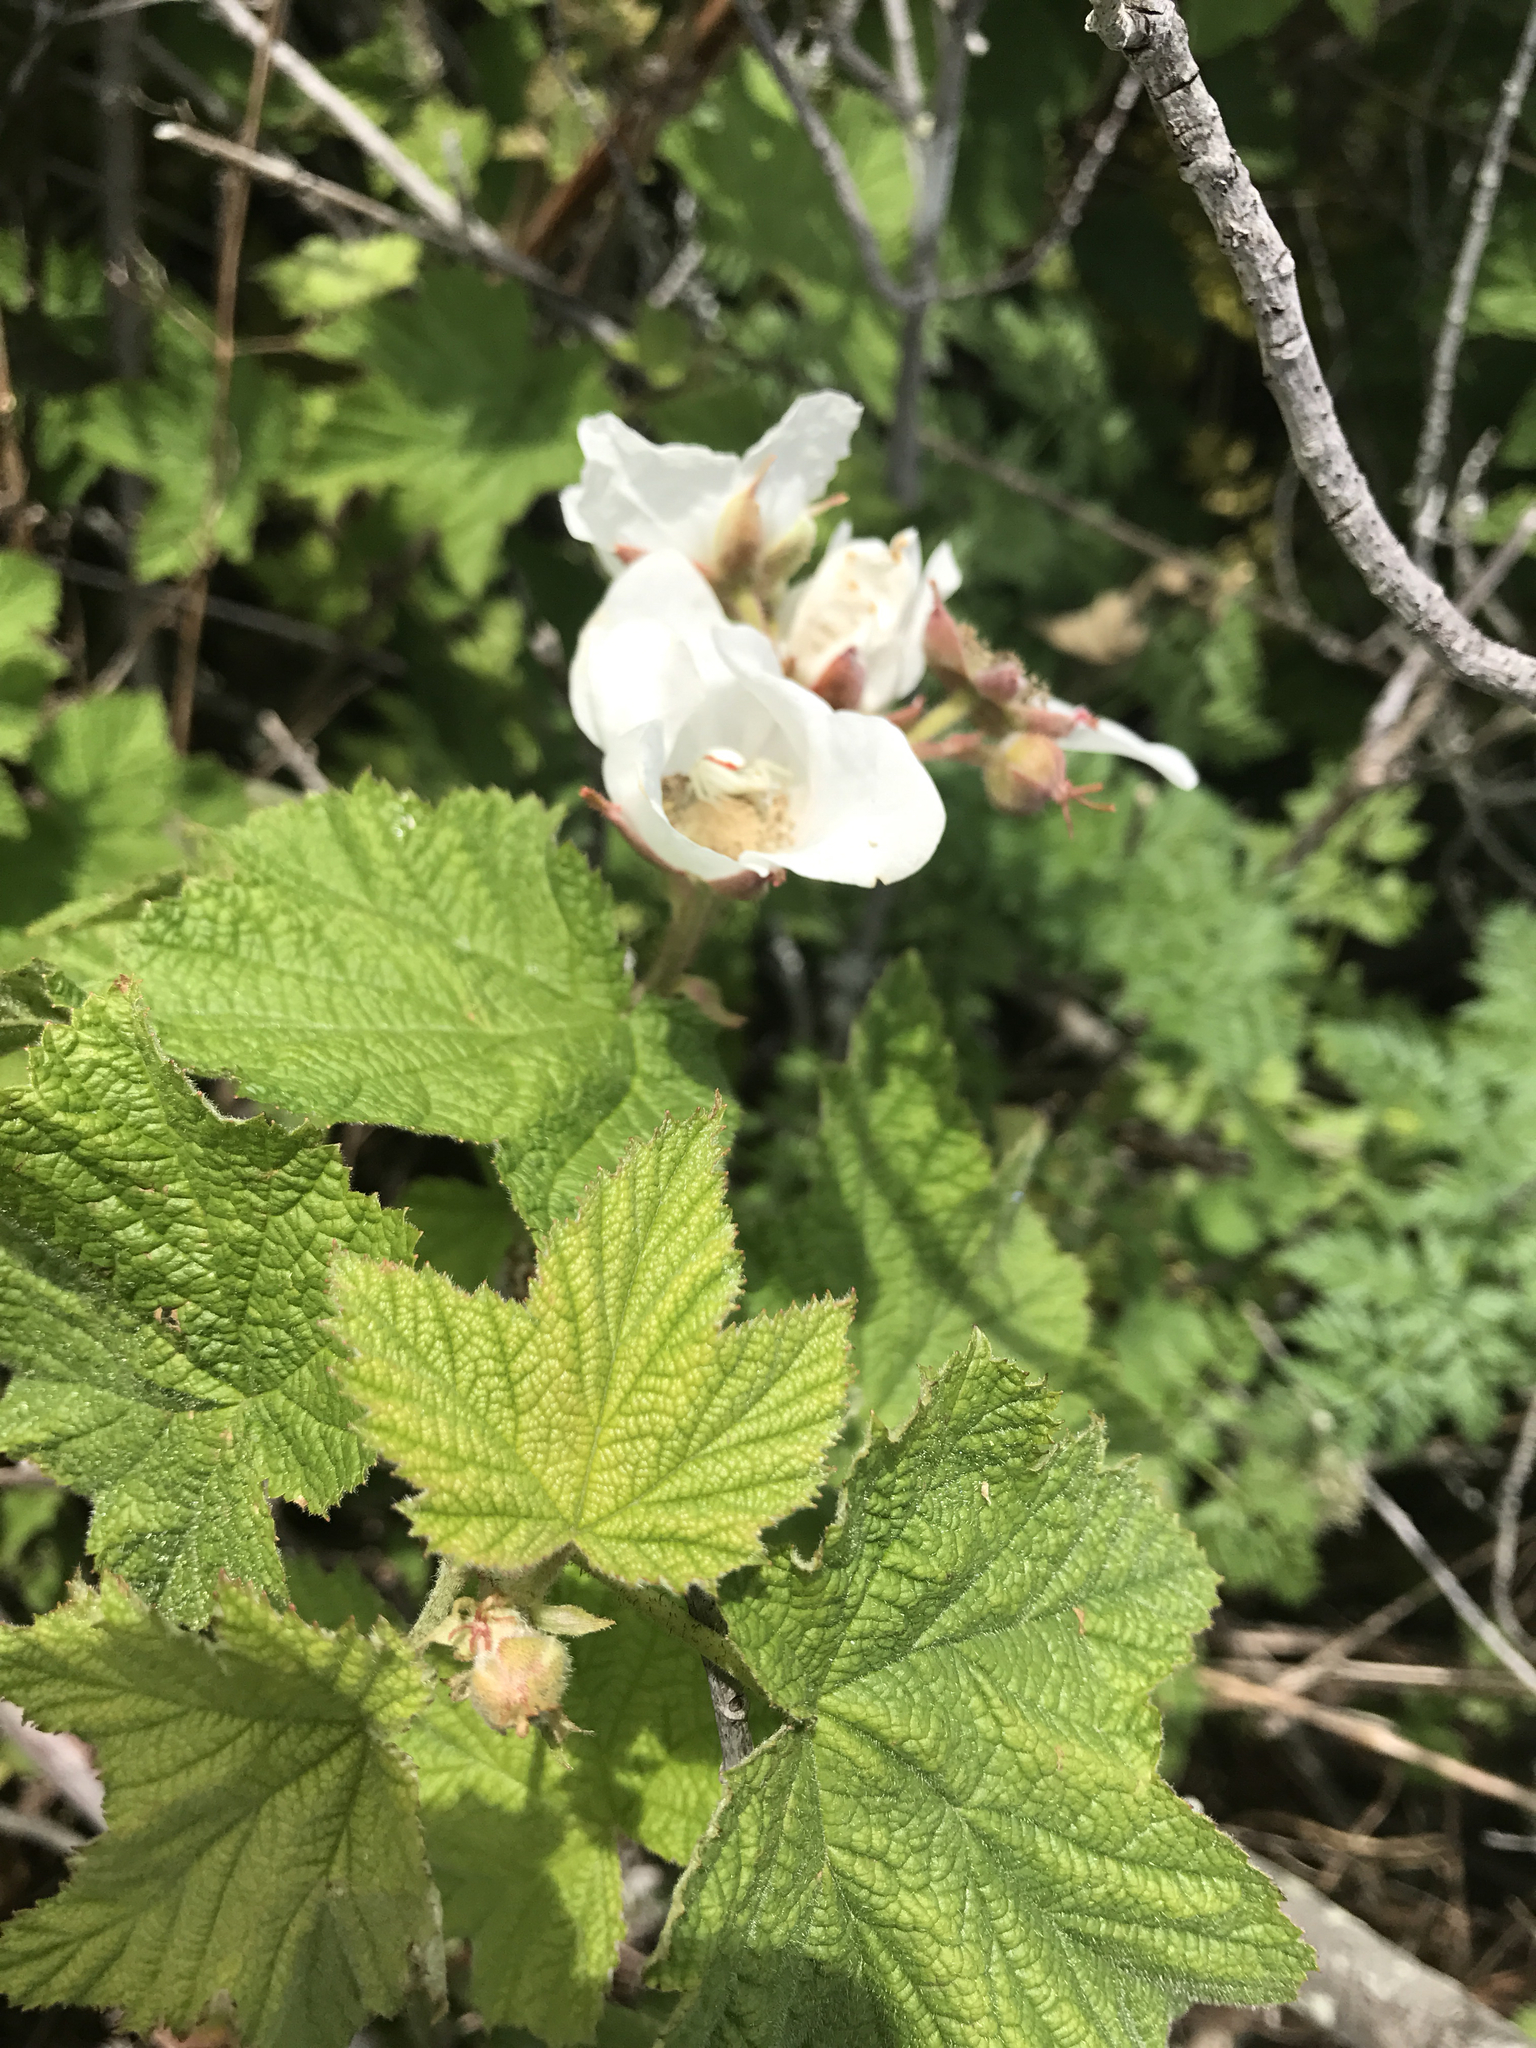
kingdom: Plantae
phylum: Tracheophyta
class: Magnoliopsida
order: Rosales
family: Rosaceae
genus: Rubus
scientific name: Rubus parviflorus
